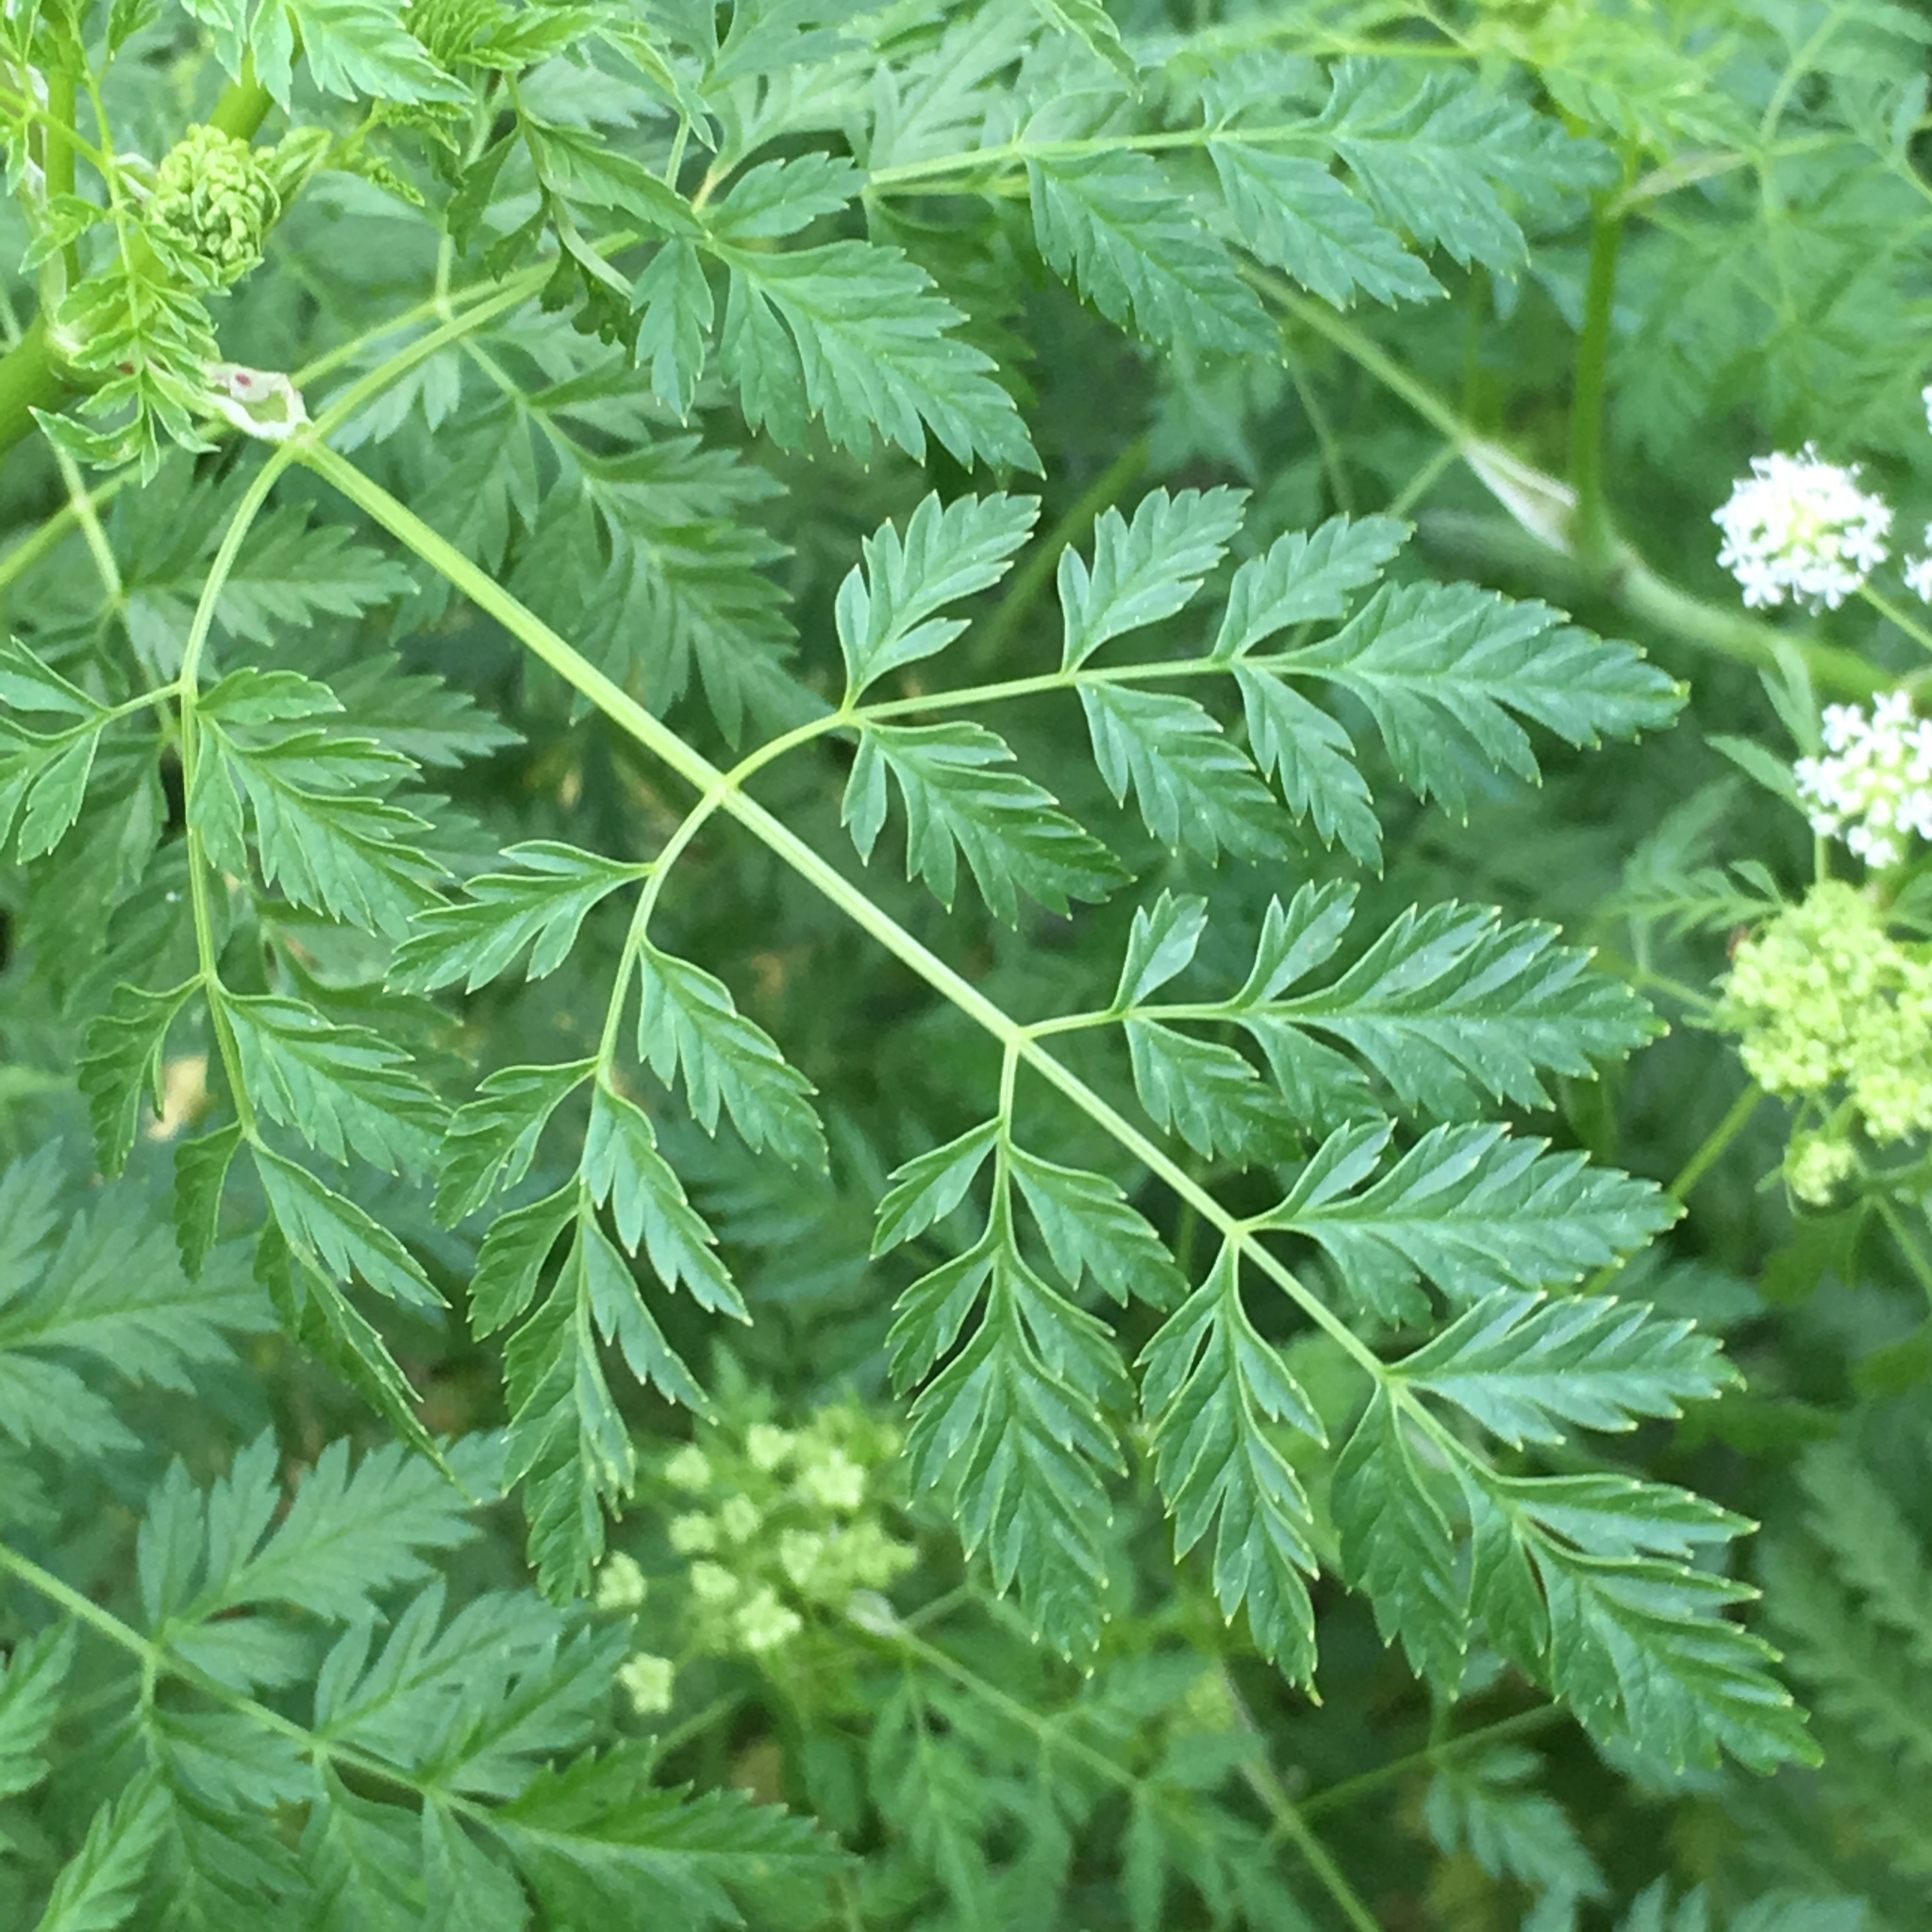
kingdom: Plantae
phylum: Tracheophyta
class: Magnoliopsida
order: Apiales
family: Apiaceae
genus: Conium
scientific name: Conium maculatum
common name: Hemlock
